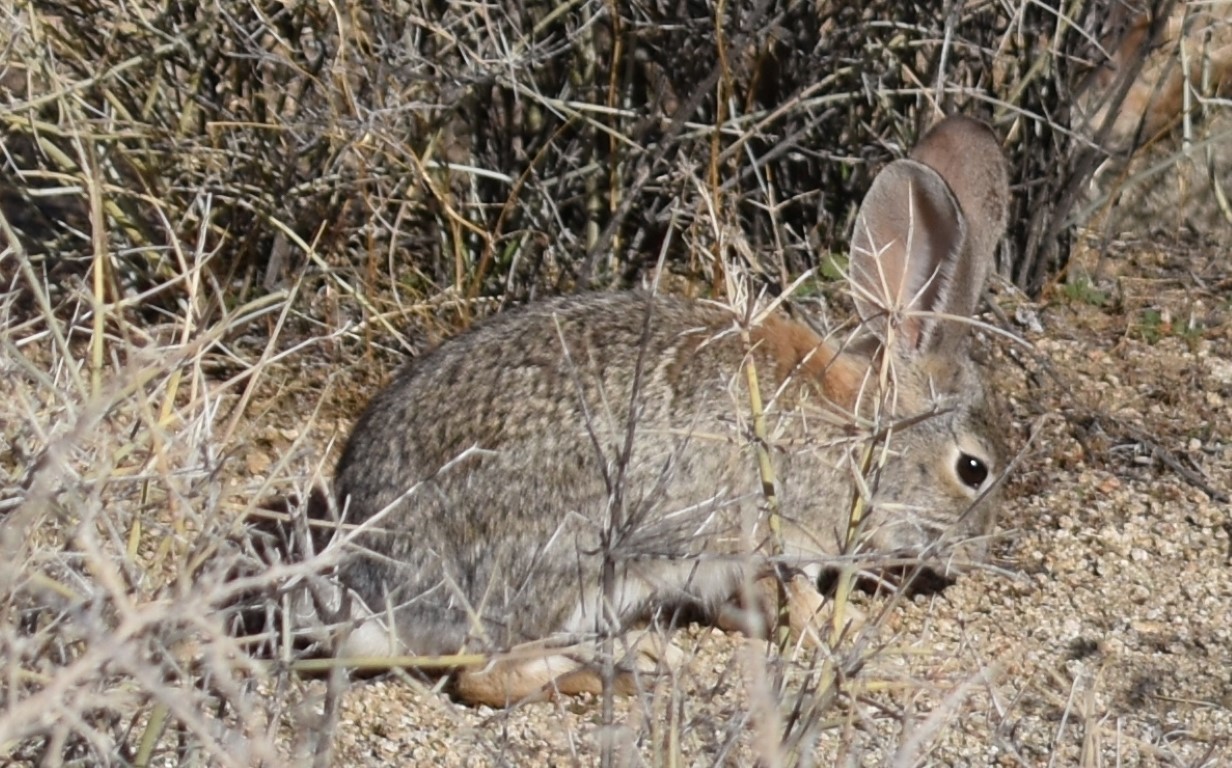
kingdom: Animalia
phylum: Chordata
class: Mammalia
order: Lagomorpha
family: Leporidae
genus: Sylvilagus
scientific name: Sylvilagus audubonii
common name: Desert cottontail
